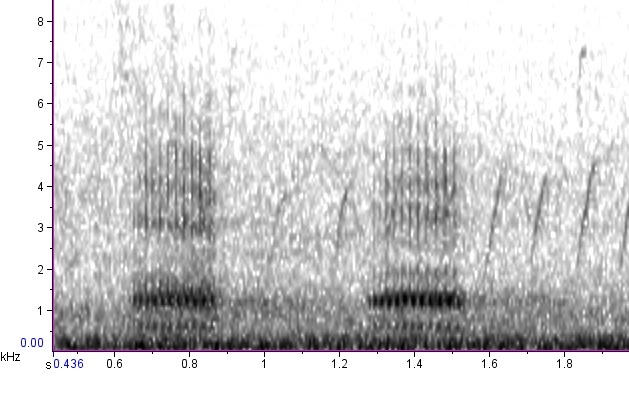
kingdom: Animalia
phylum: Chordata
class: Aves
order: Passeriformes
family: Corvidae
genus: Corvus
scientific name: Corvus corax
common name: Common raven
